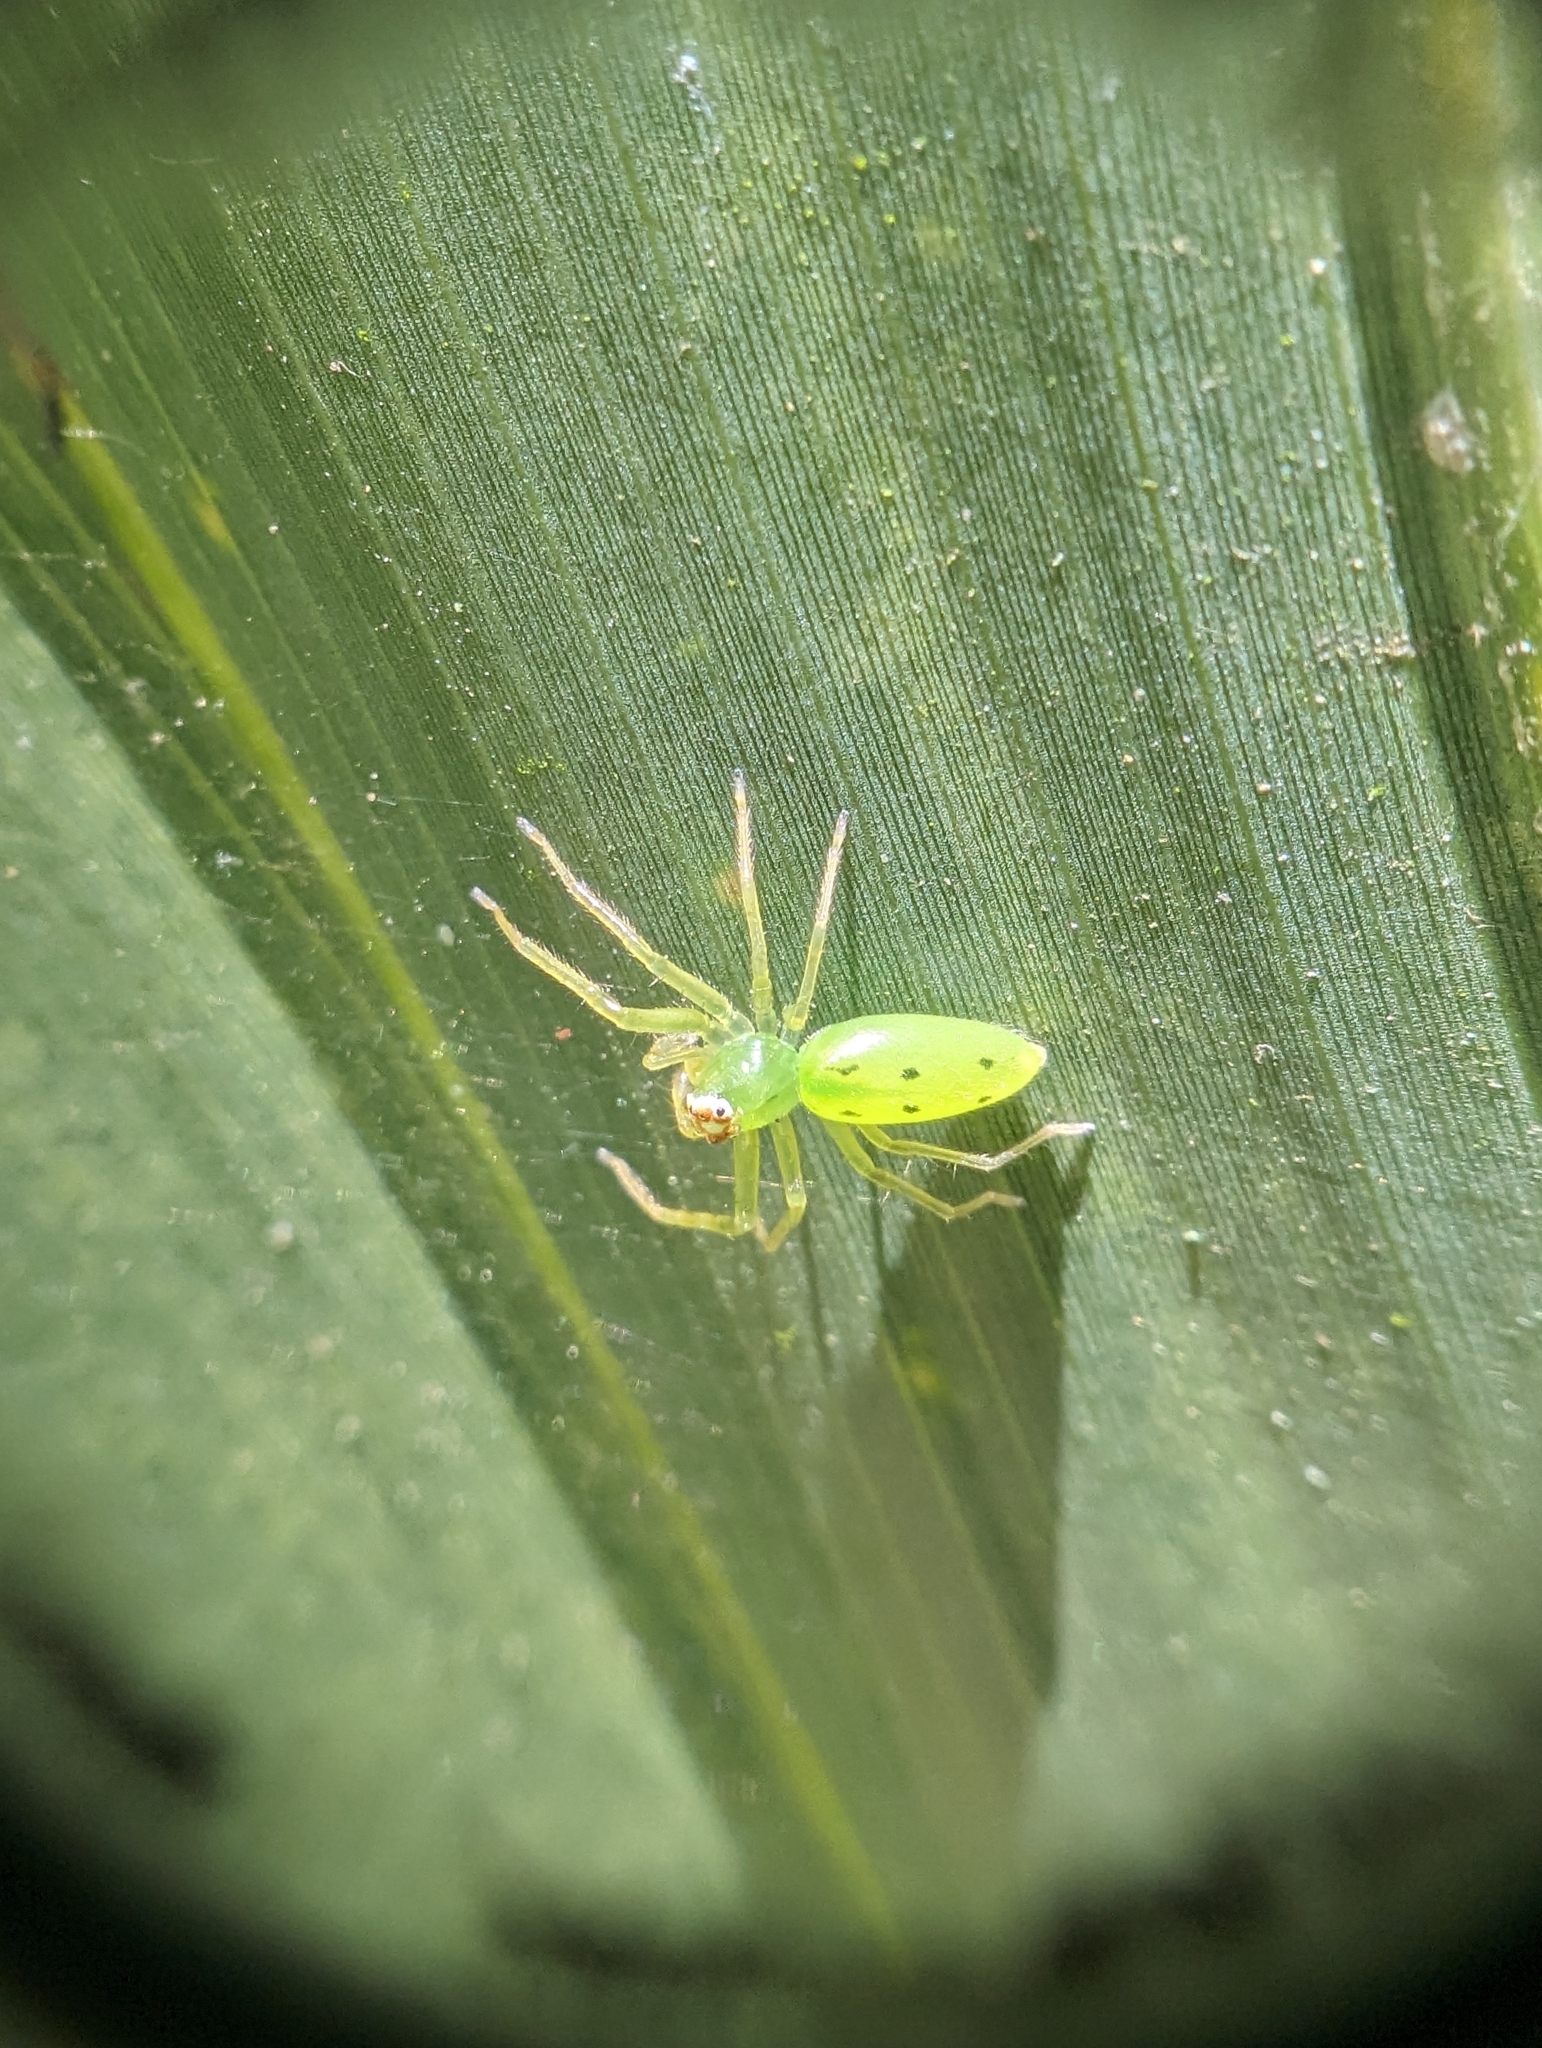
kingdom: Animalia
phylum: Arthropoda
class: Arachnida
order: Araneae
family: Salticidae
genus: Lyssomanes
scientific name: Lyssomanes viridis
